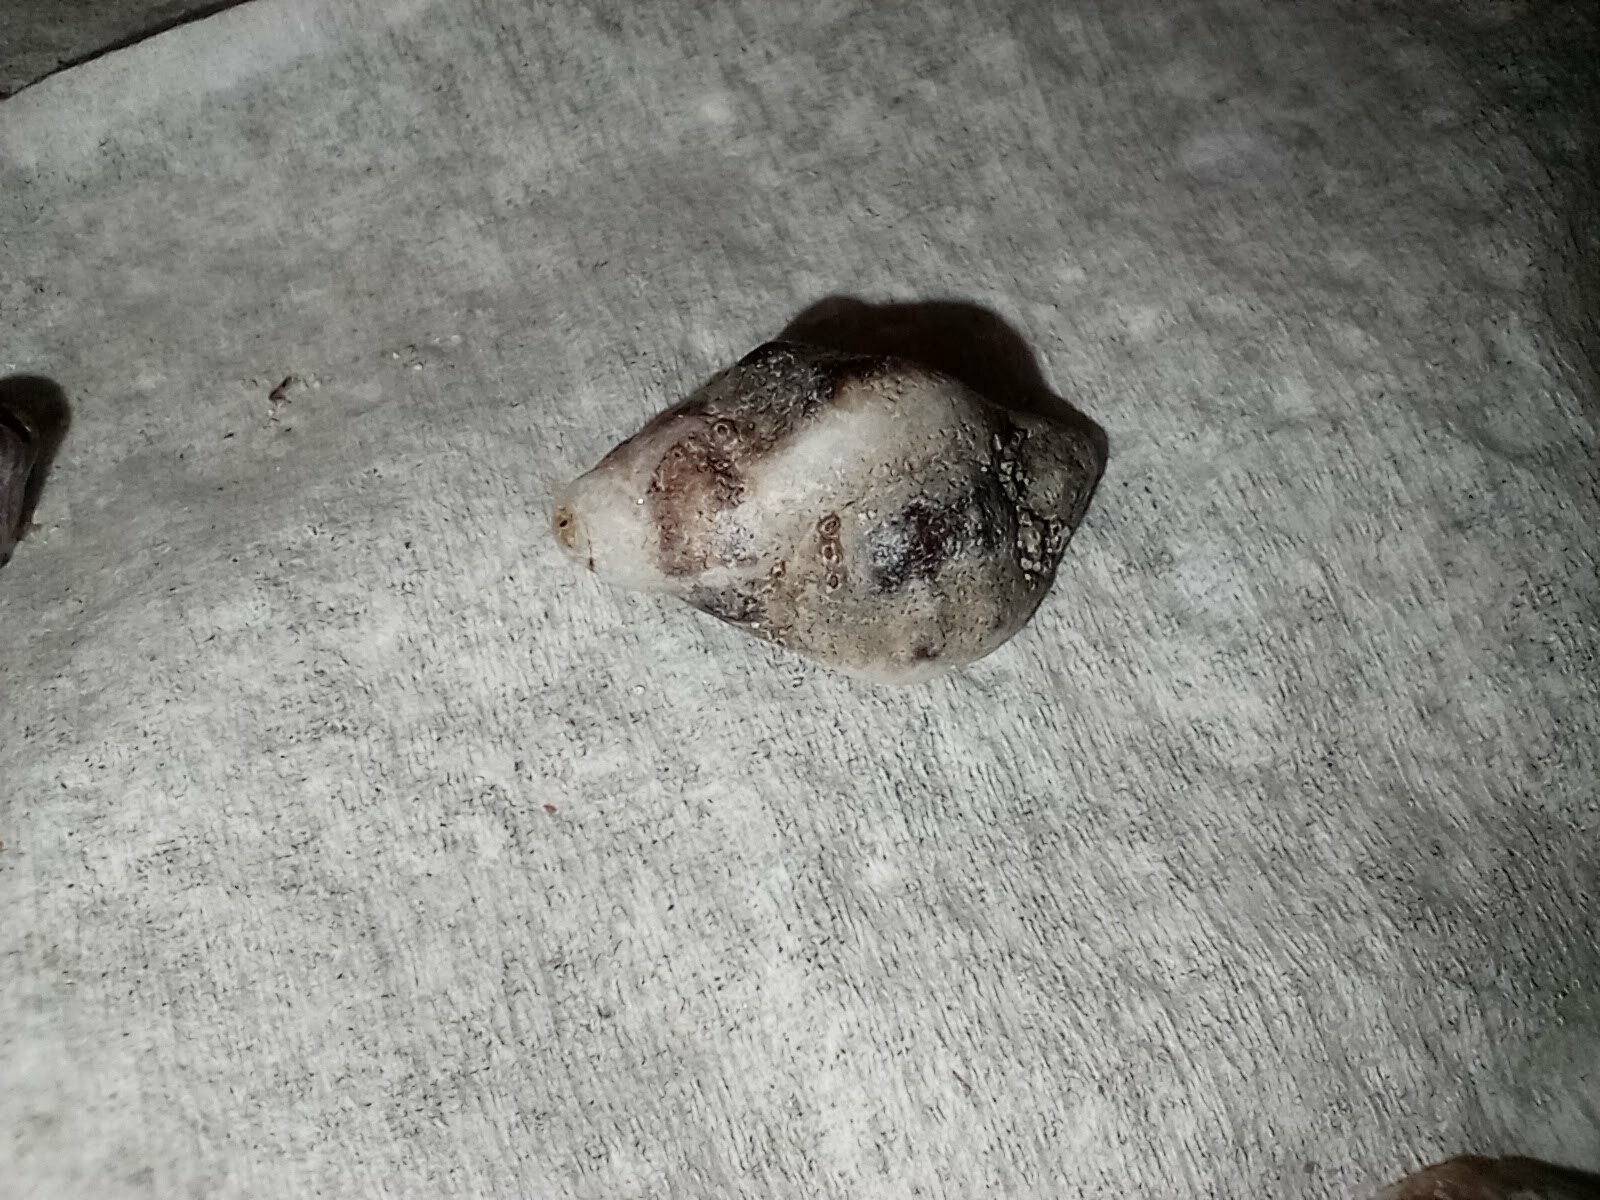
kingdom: Animalia
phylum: Mollusca
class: Gastropoda
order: Neogastropoda
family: Muricidae
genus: Ceratostoma
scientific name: Ceratostoma nuttalli
